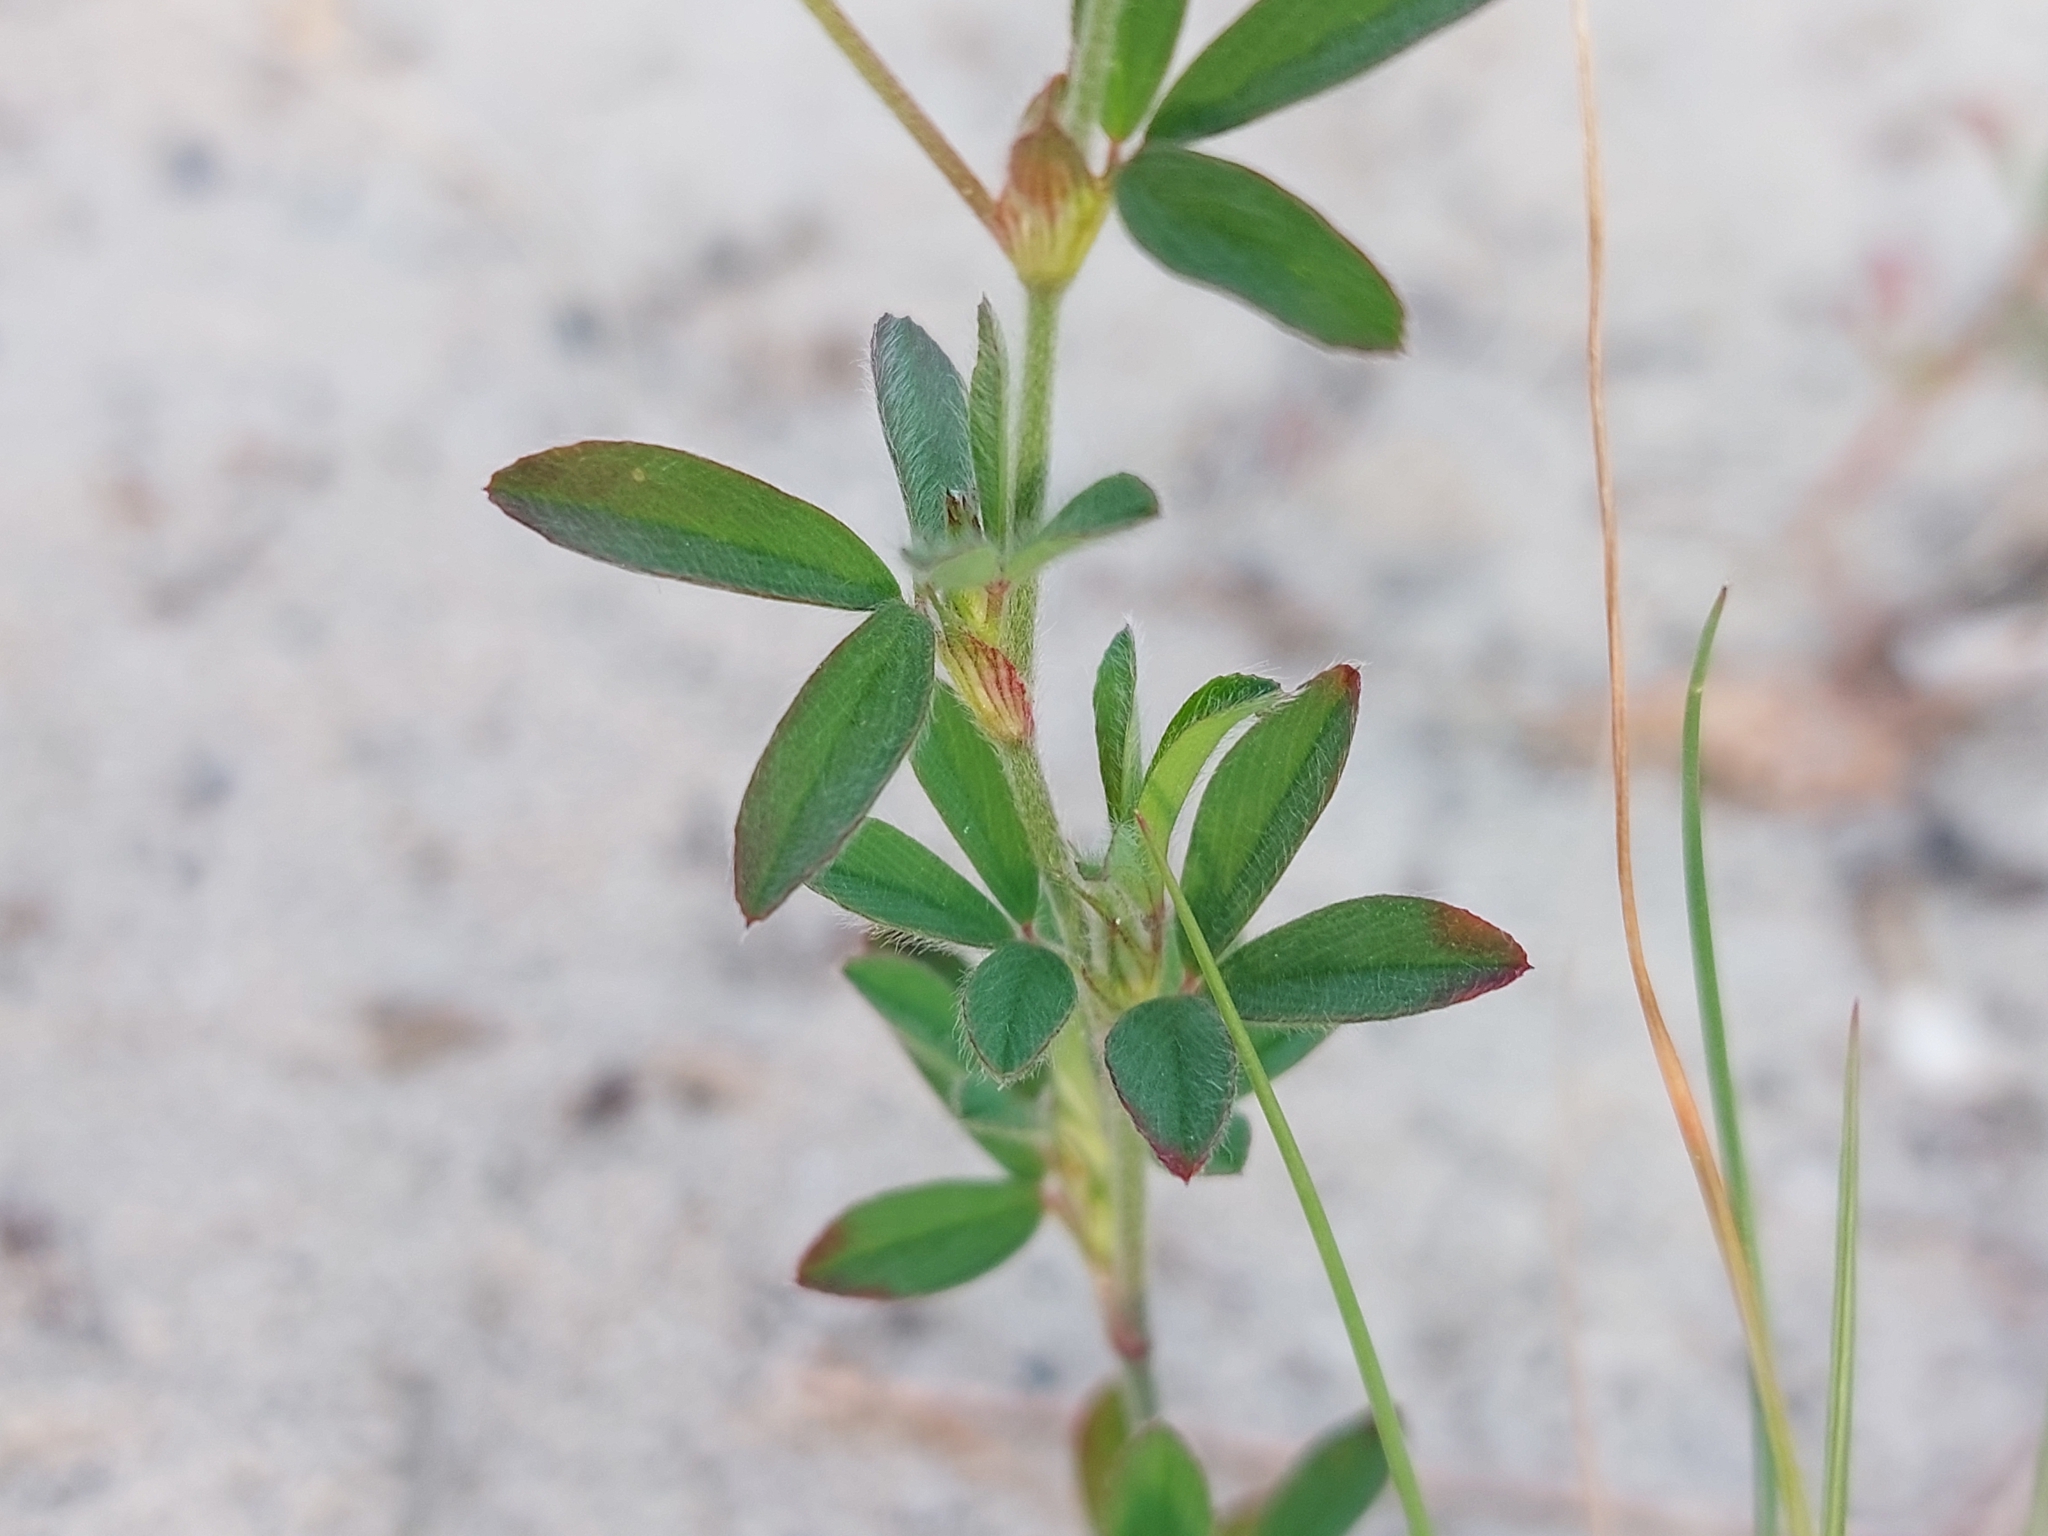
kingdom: Plantae
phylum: Tracheophyta
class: Magnoliopsida
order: Fabales
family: Fabaceae
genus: Trifolium
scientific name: Trifolium arvense
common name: Hare's-foot clover
